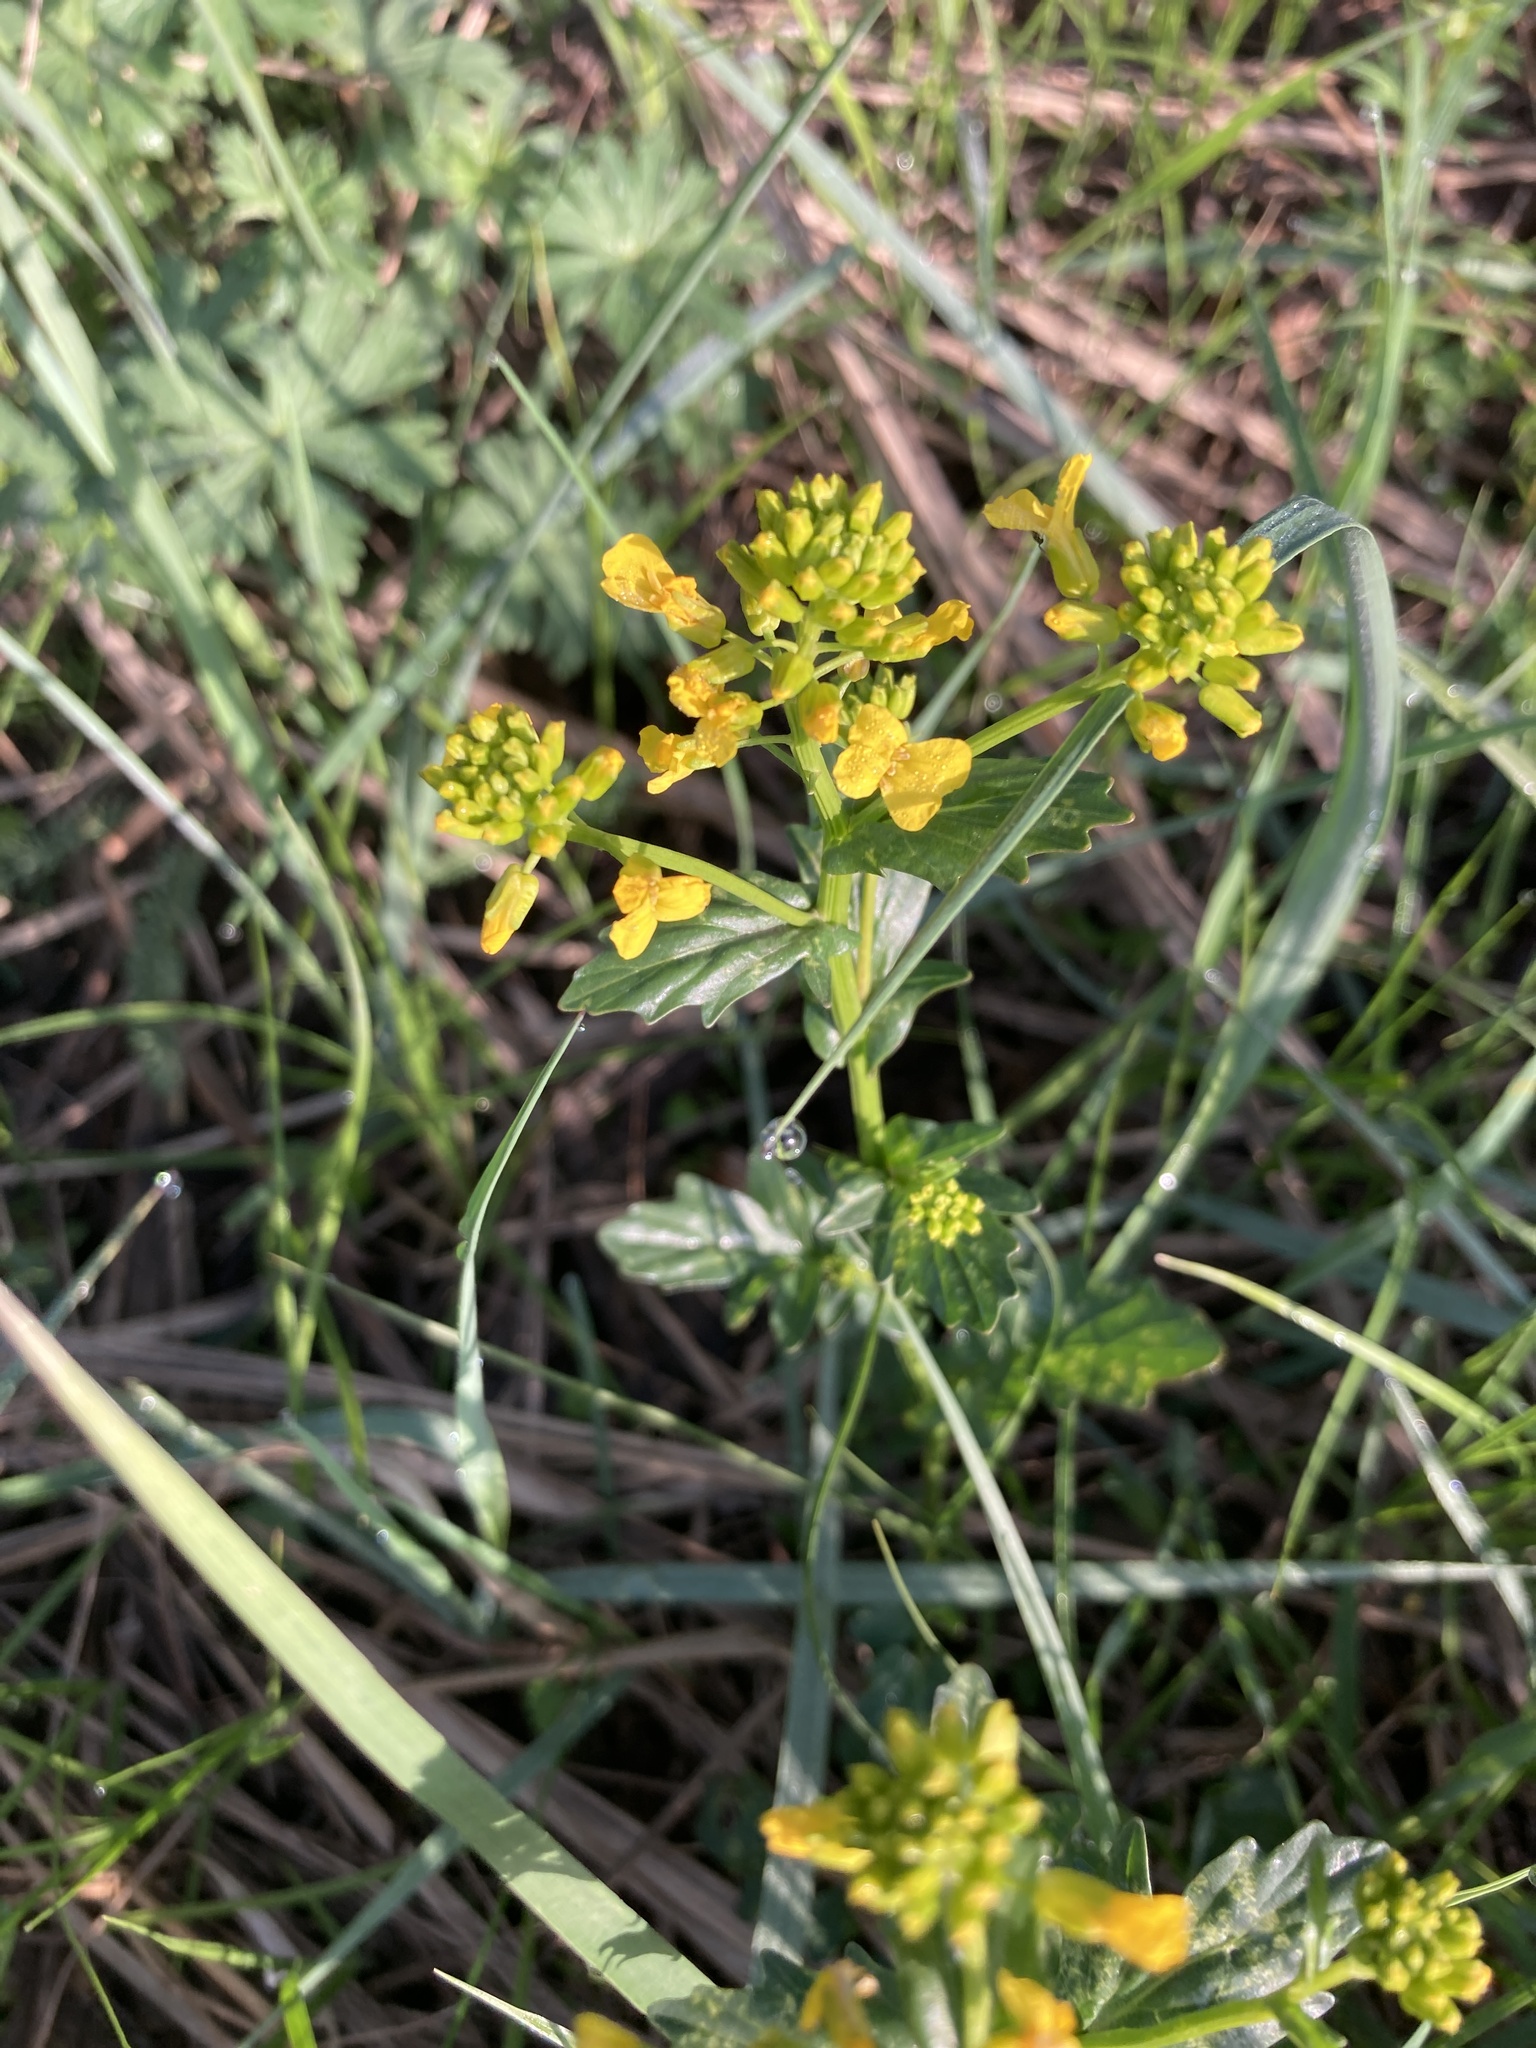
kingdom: Plantae
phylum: Tracheophyta
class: Magnoliopsida
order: Brassicales
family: Brassicaceae
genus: Barbarea
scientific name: Barbarea vulgaris
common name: Cressy-greens
